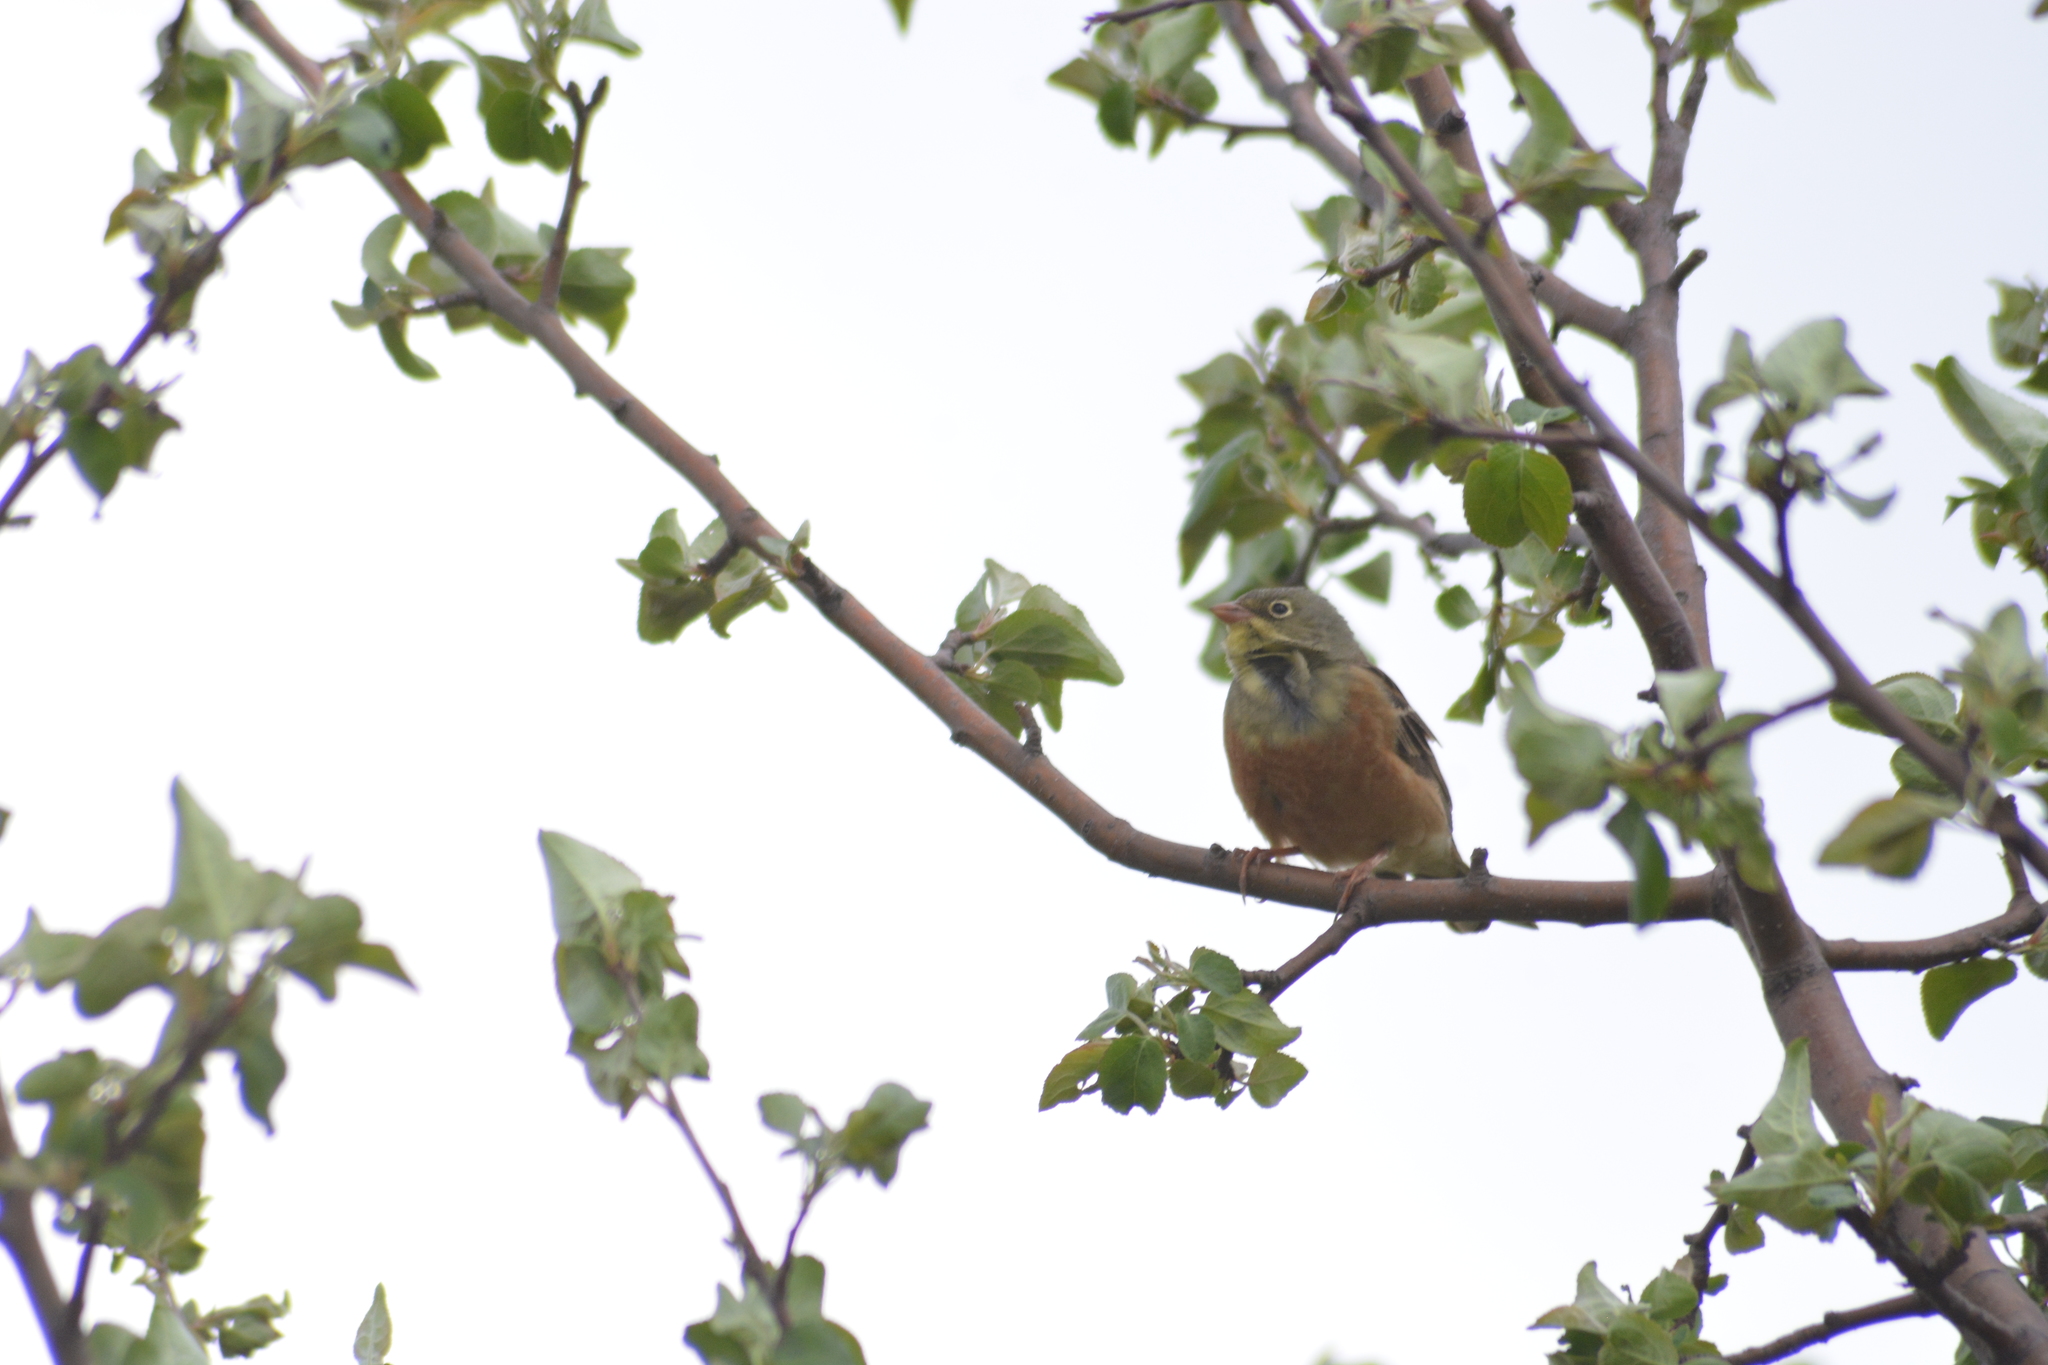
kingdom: Animalia
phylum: Chordata
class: Aves
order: Passeriformes
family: Emberizidae
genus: Emberiza
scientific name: Emberiza hortulana
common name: Ortolan bunting
